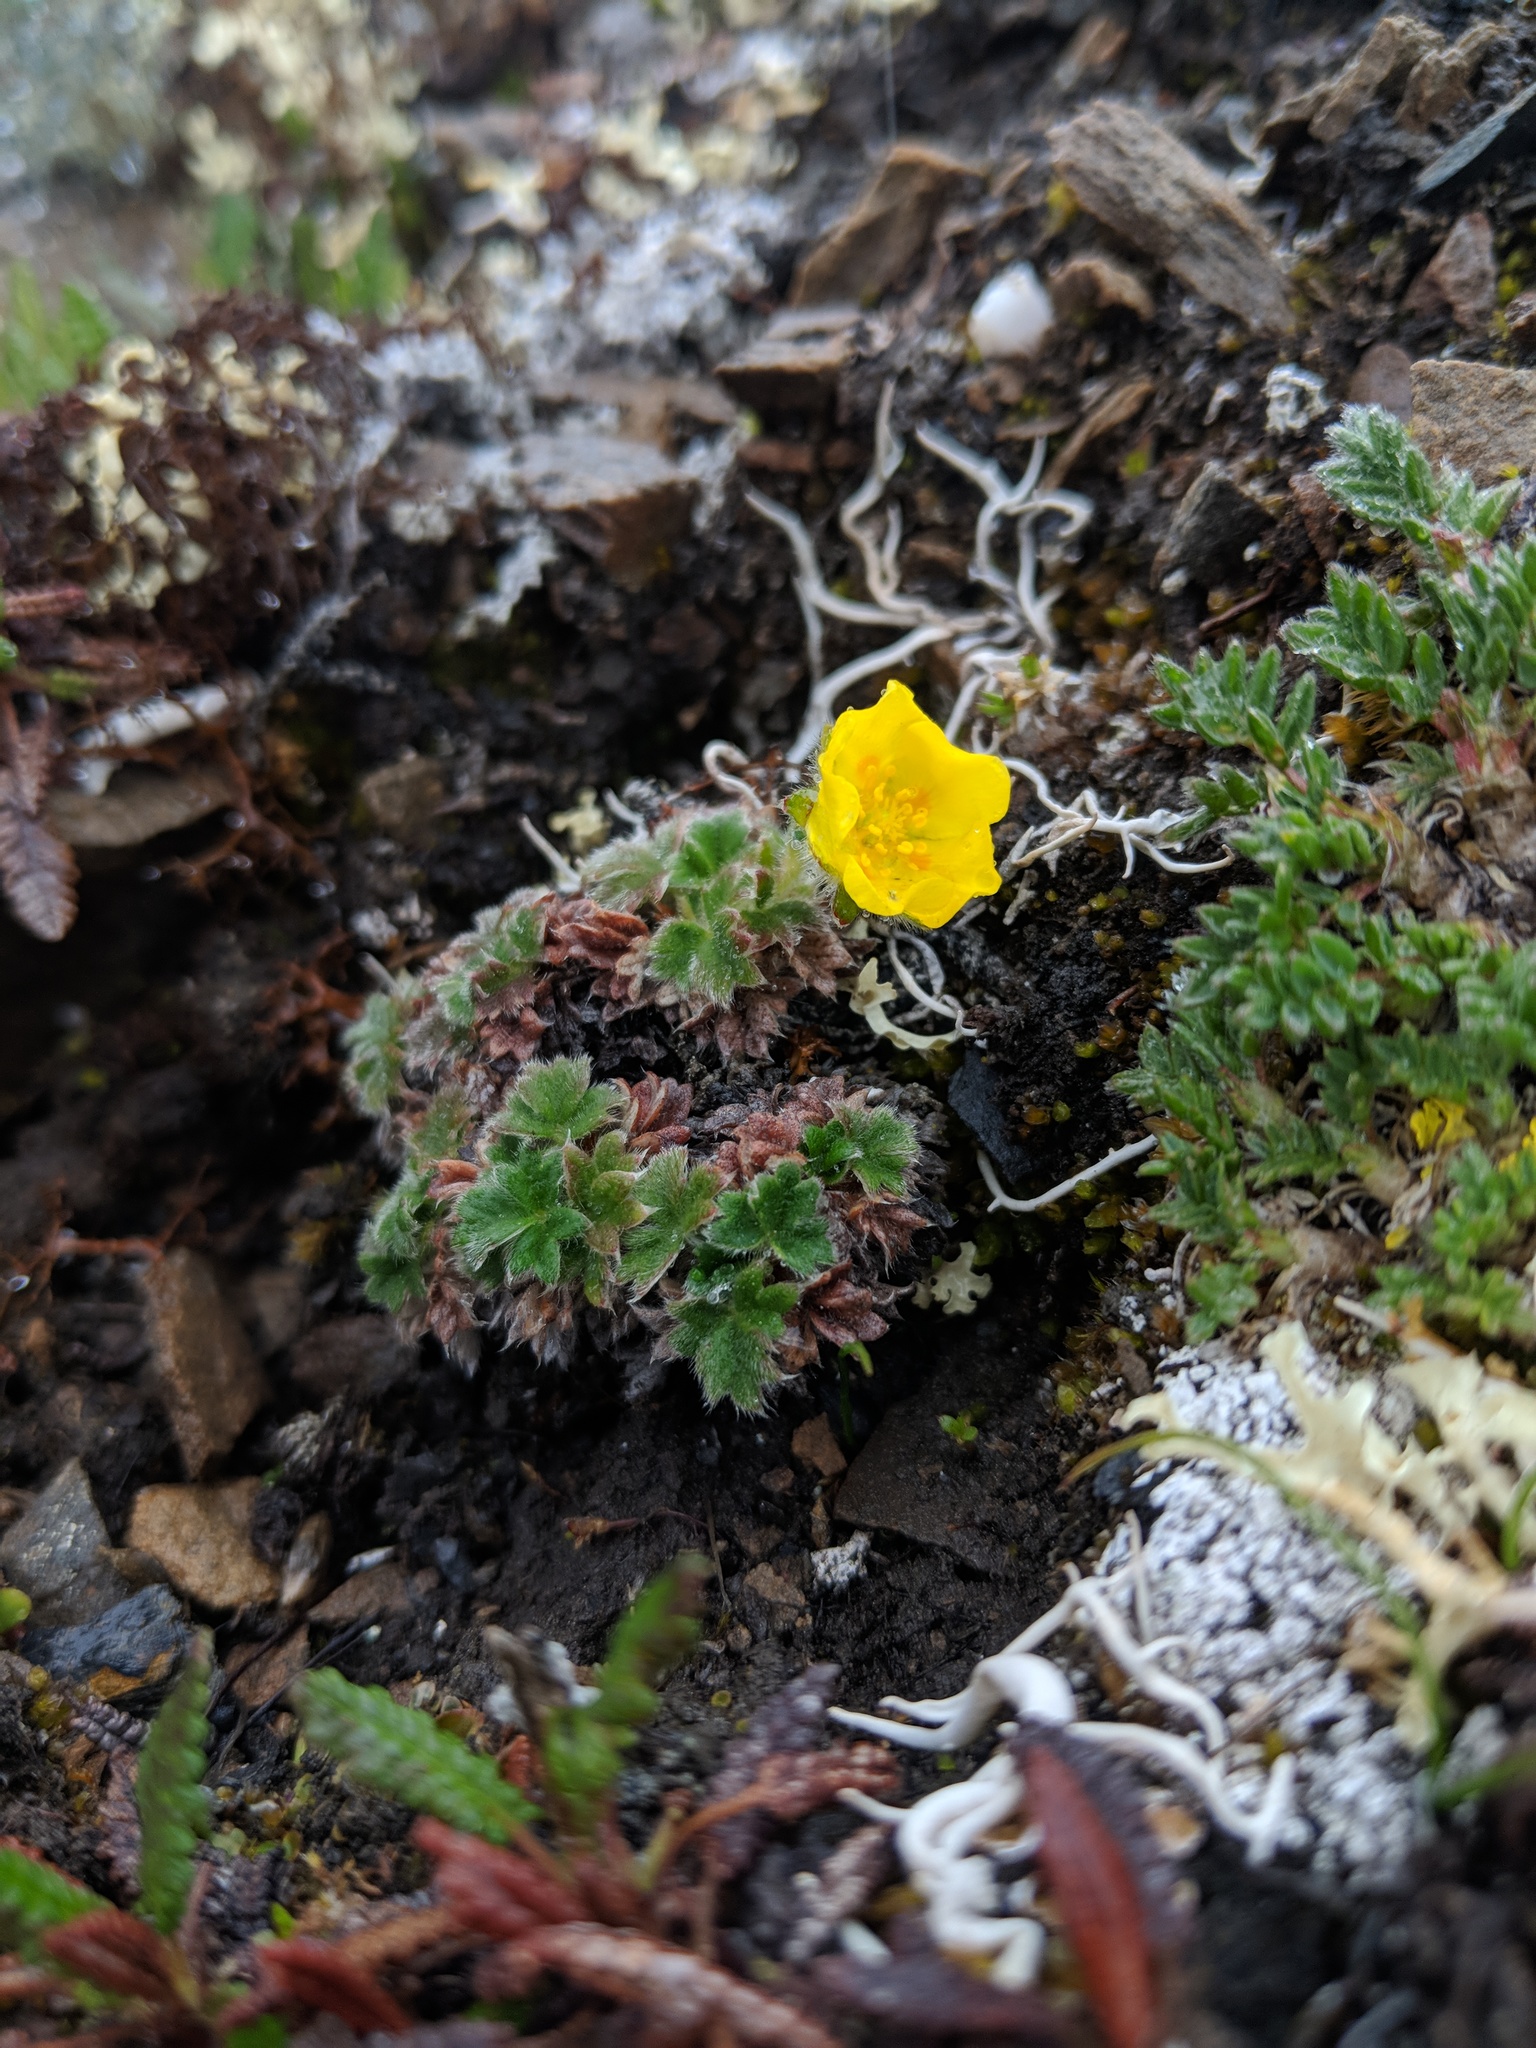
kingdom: Plantae
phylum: Tracheophyta
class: Magnoliopsida
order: Rosales
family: Rosaceae
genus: Potentilla
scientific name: Potentilla subvahliana
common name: Far northern cinquefoil
